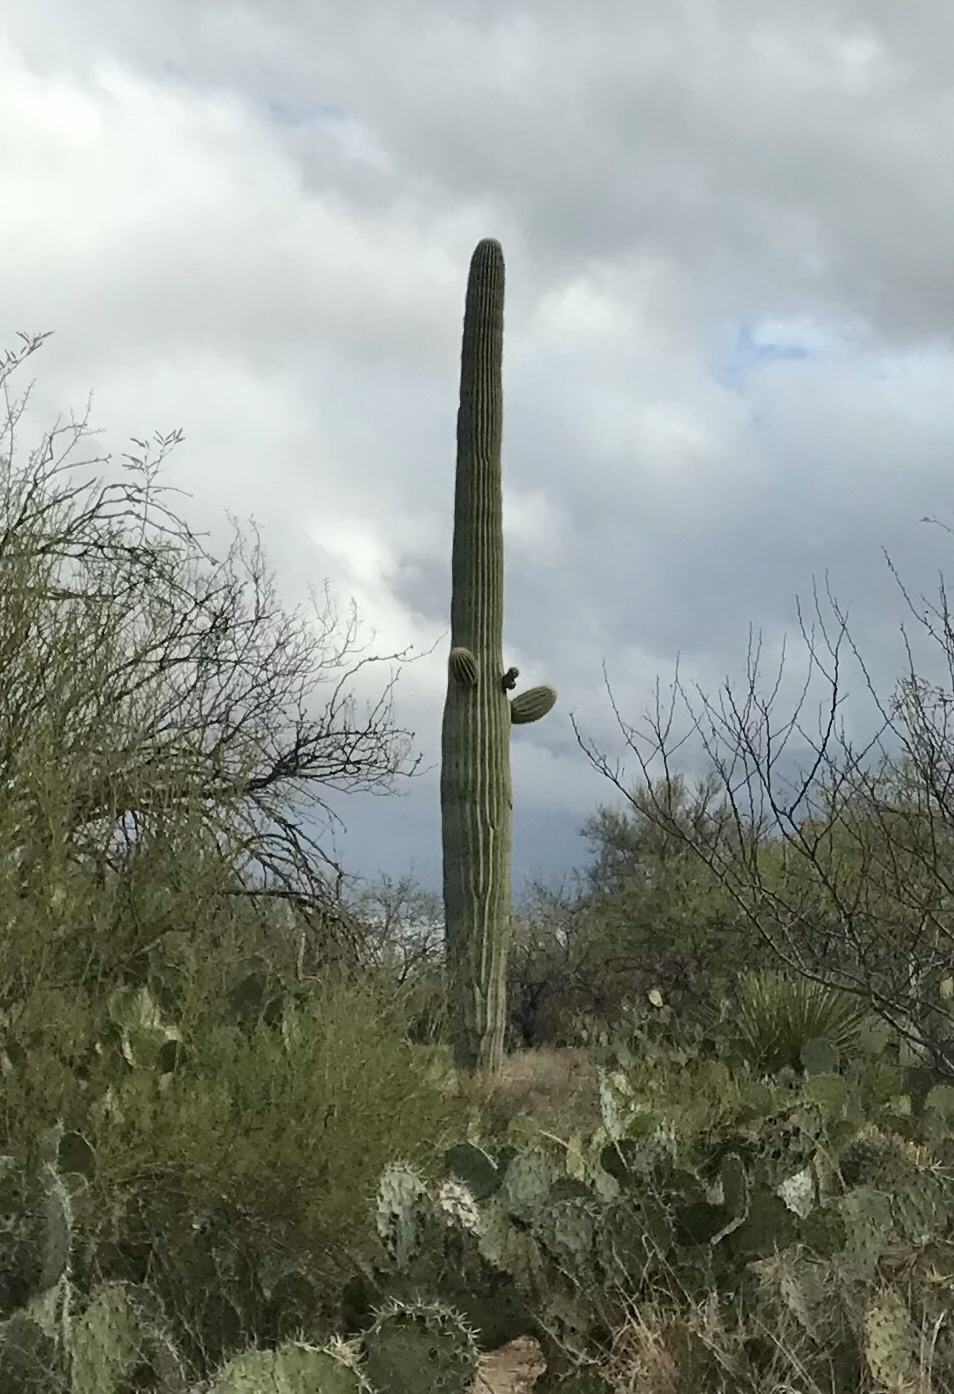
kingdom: Plantae
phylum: Tracheophyta
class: Magnoliopsida
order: Caryophyllales
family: Cactaceae
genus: Carnegiea
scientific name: Carnegiea gigantea
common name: Saguaro
